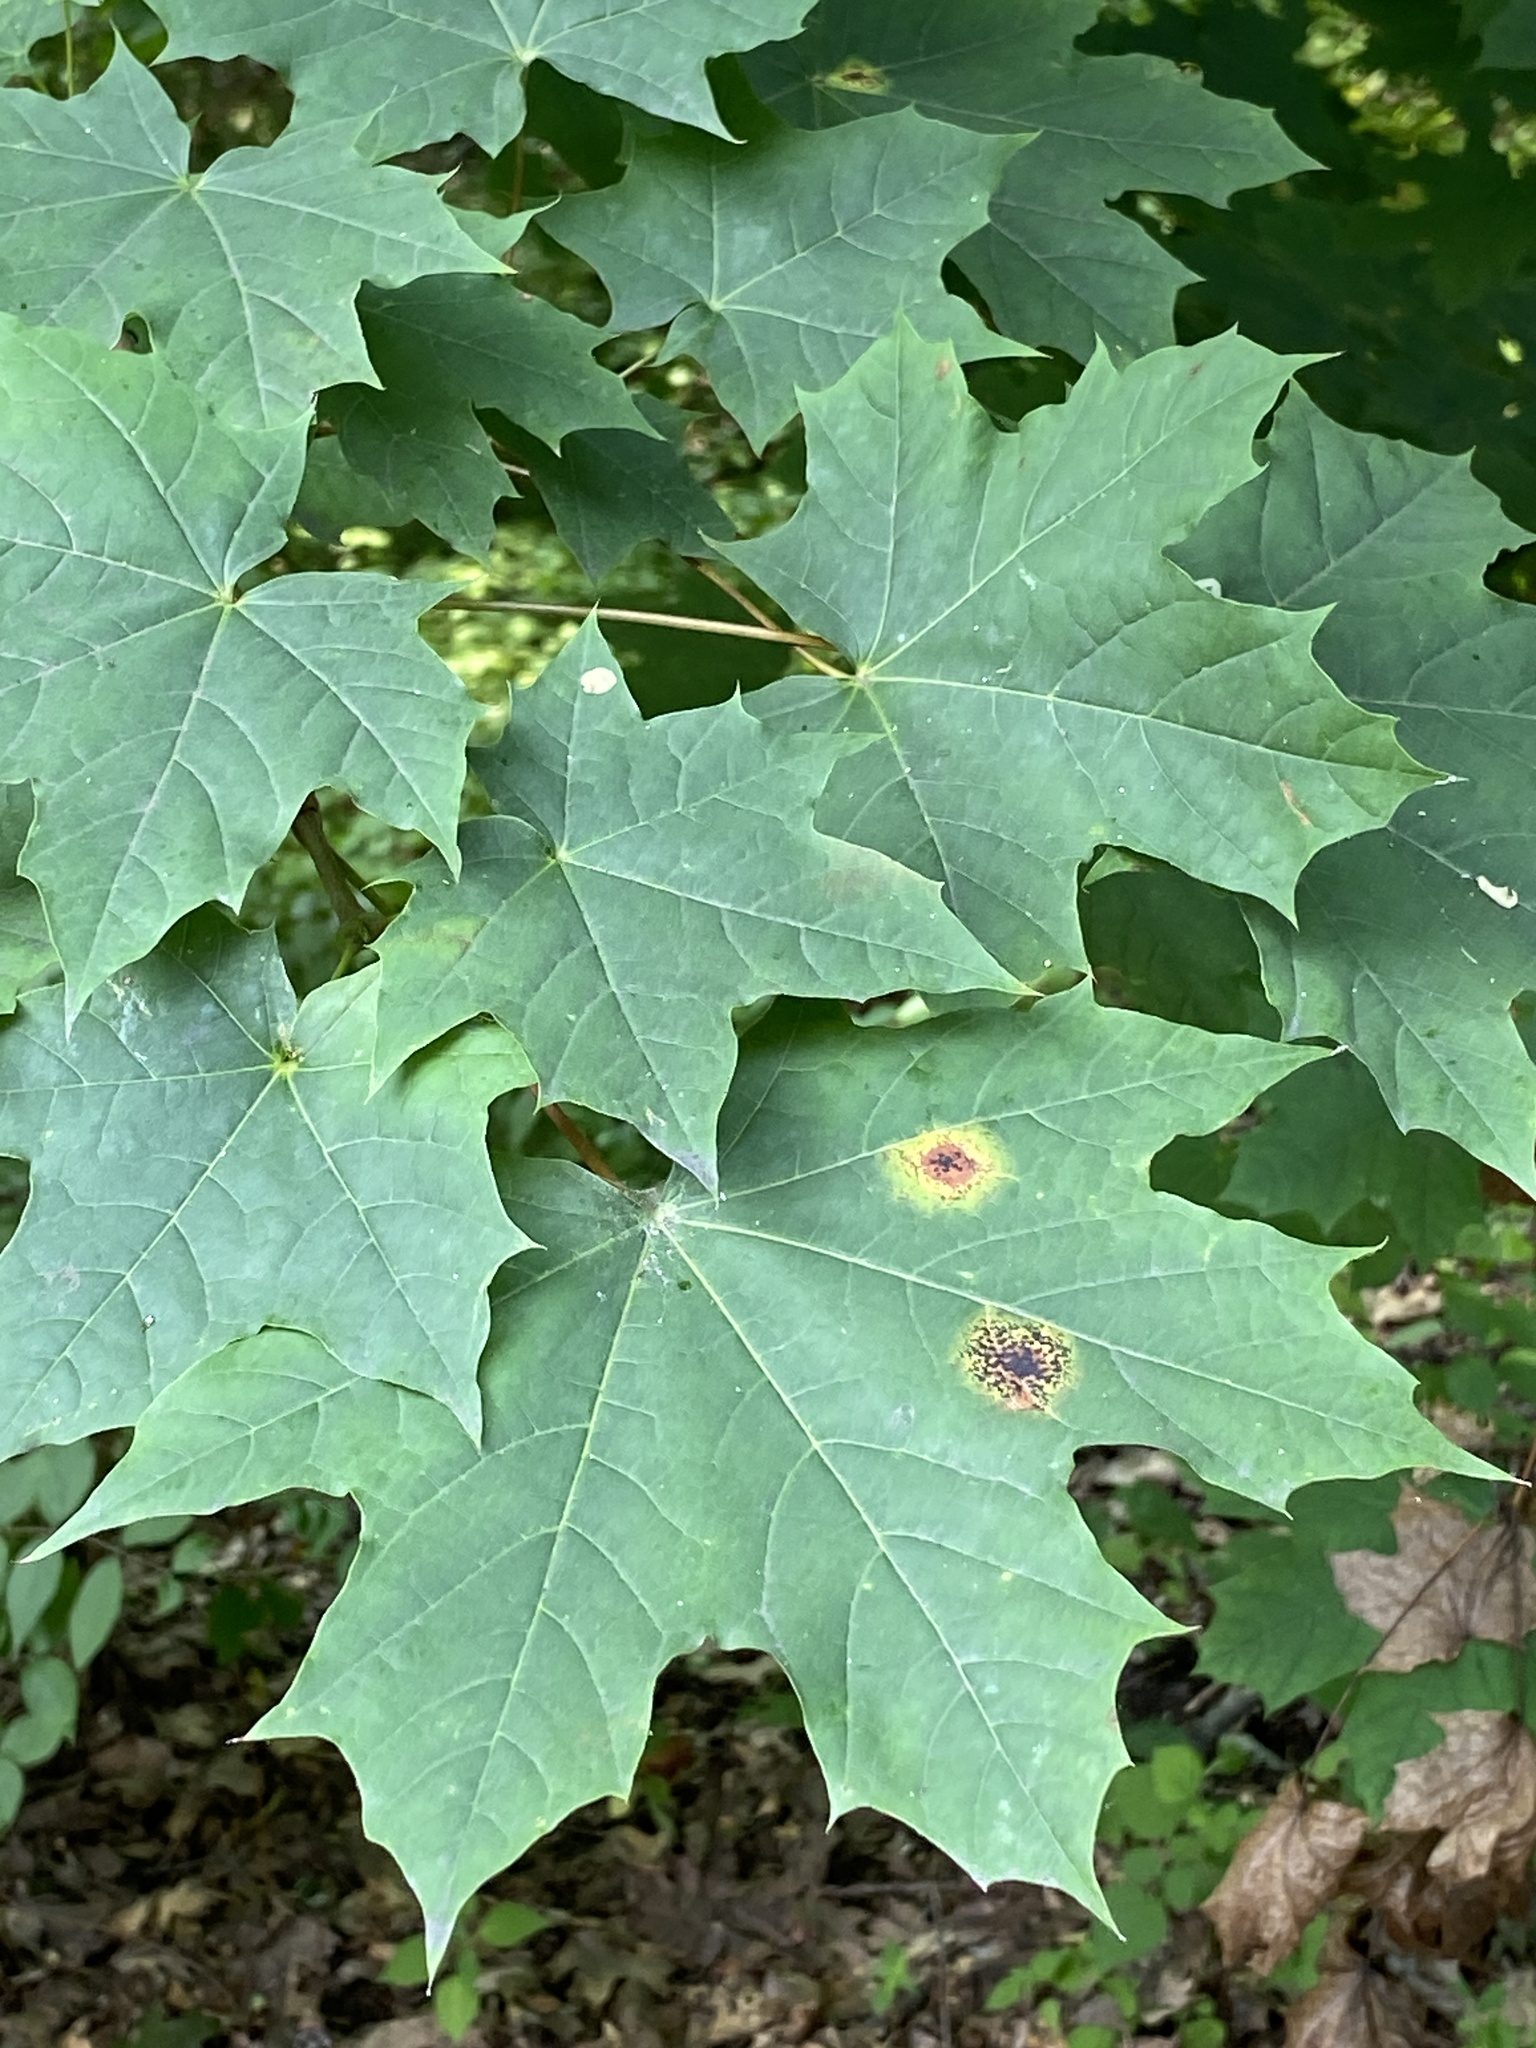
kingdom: Fungi
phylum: Ascomycota
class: Leotiomycetes
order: Rhytismatales
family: Rhytismataceae
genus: Rhytisma
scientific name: Rhytisma acerinum
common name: European tar spot
